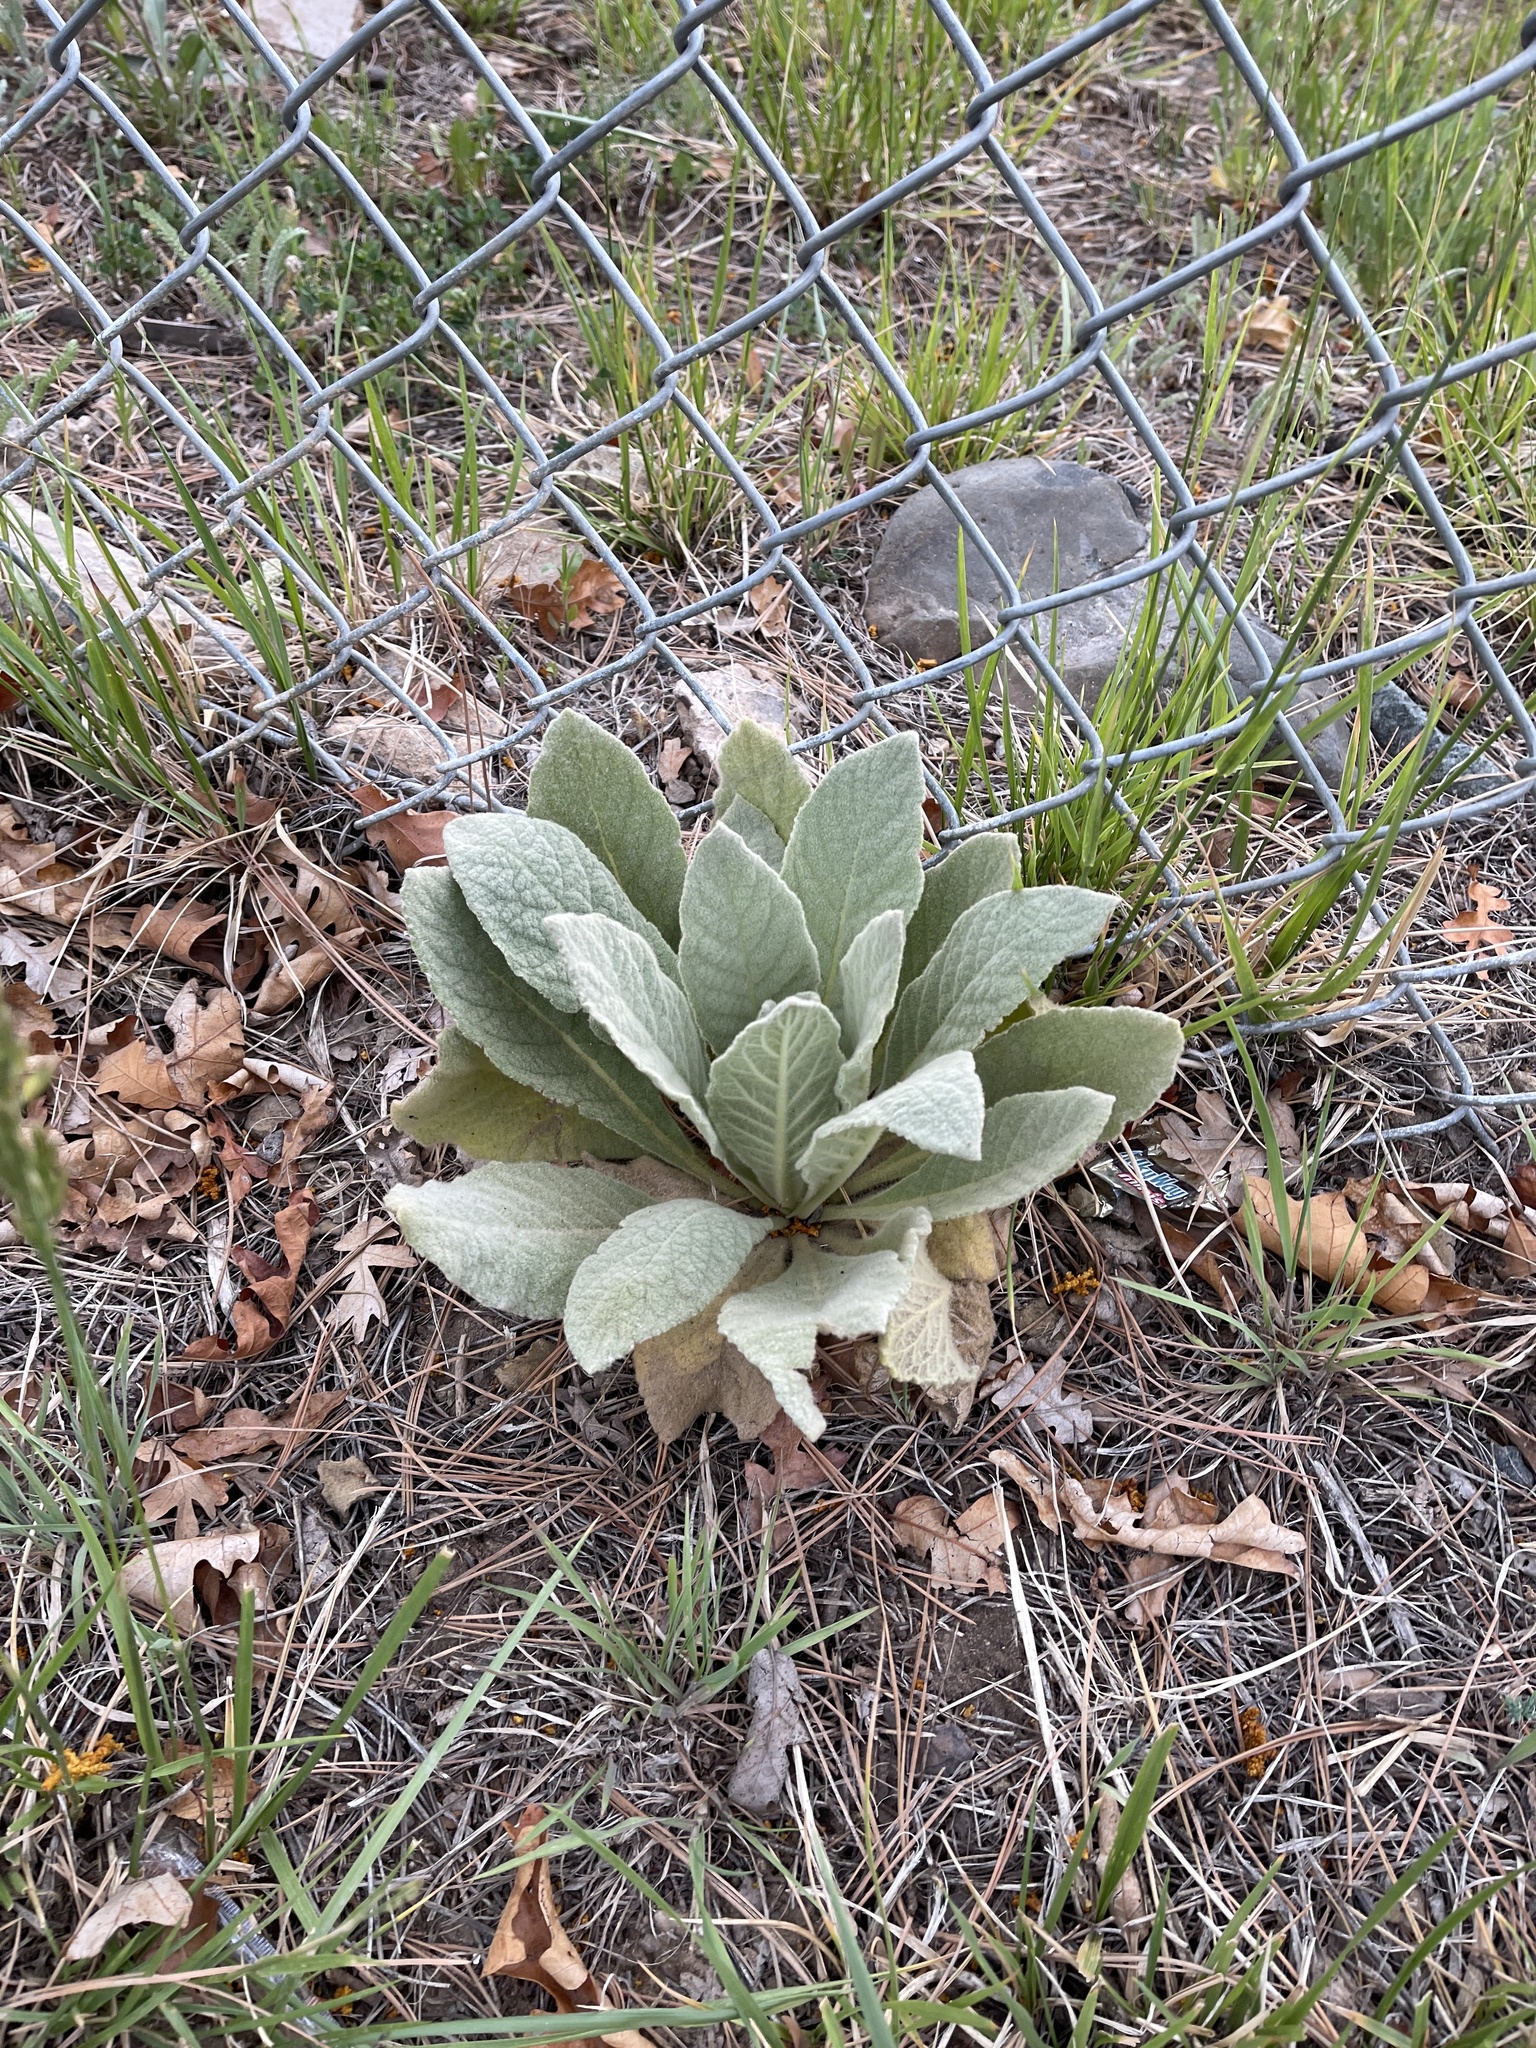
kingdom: Plantae
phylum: Tracheophyta
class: Magnoliopsida
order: Lamiales
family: Scrophulariaceae
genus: Verbascum
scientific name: Verbascum thapsus
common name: Common mullein
